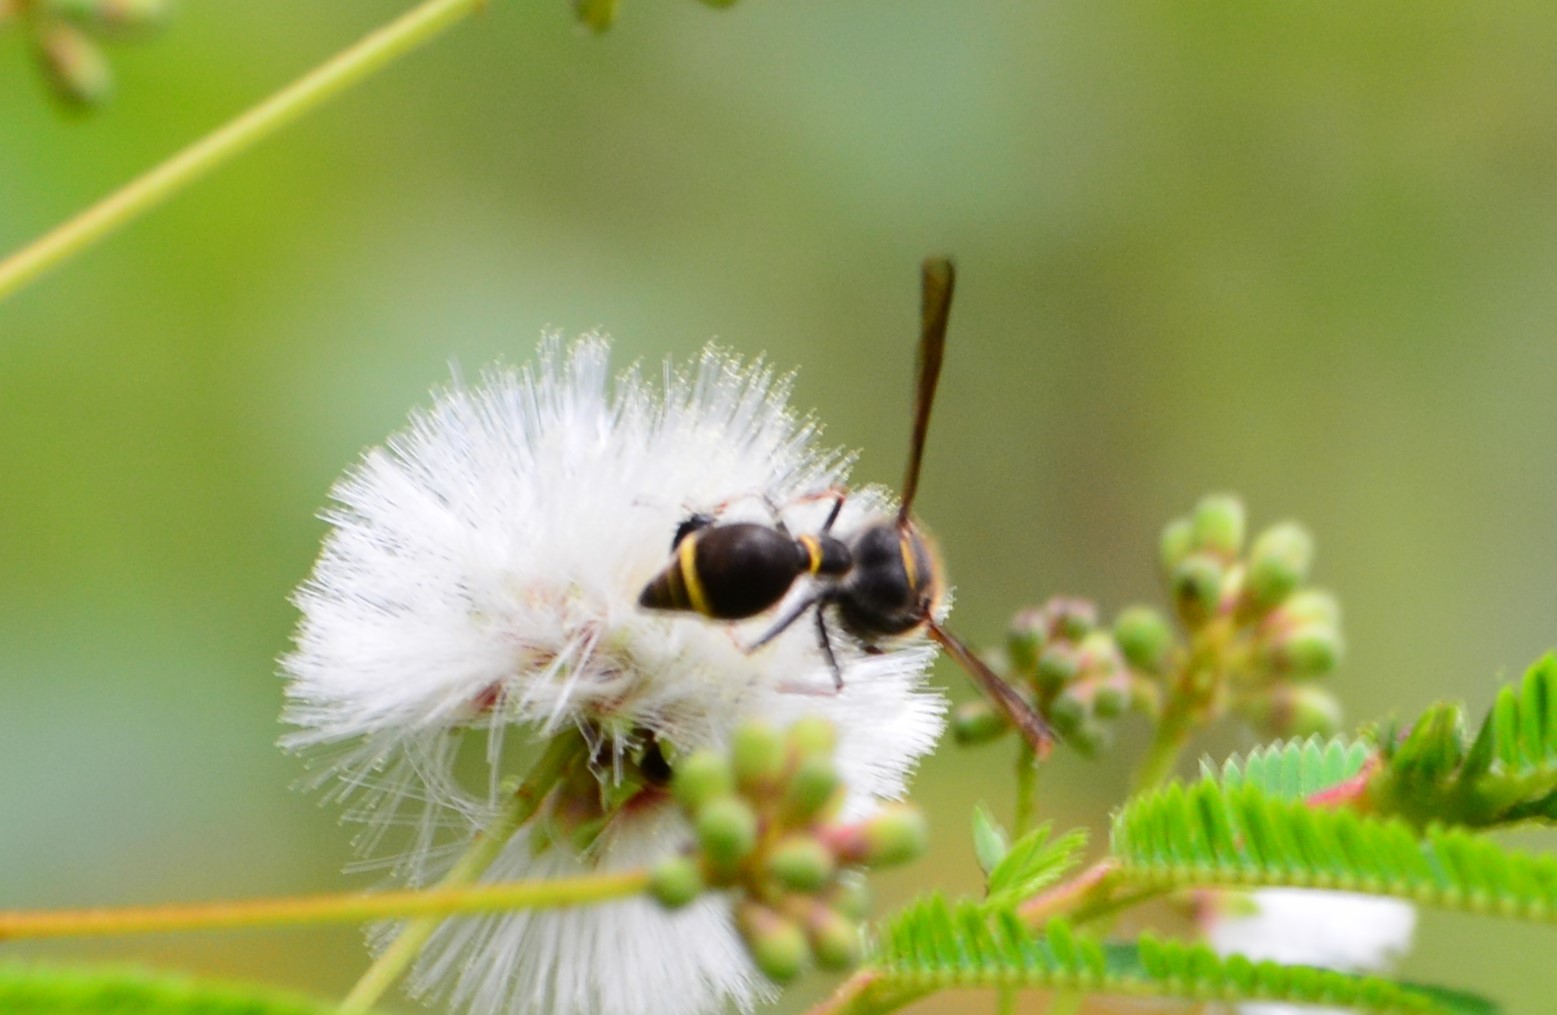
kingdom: Animalia
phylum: Arthropoda
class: Insecta
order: Hymenoptera
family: Vespidae
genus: Eumenes
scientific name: Eumenes consobrinus
